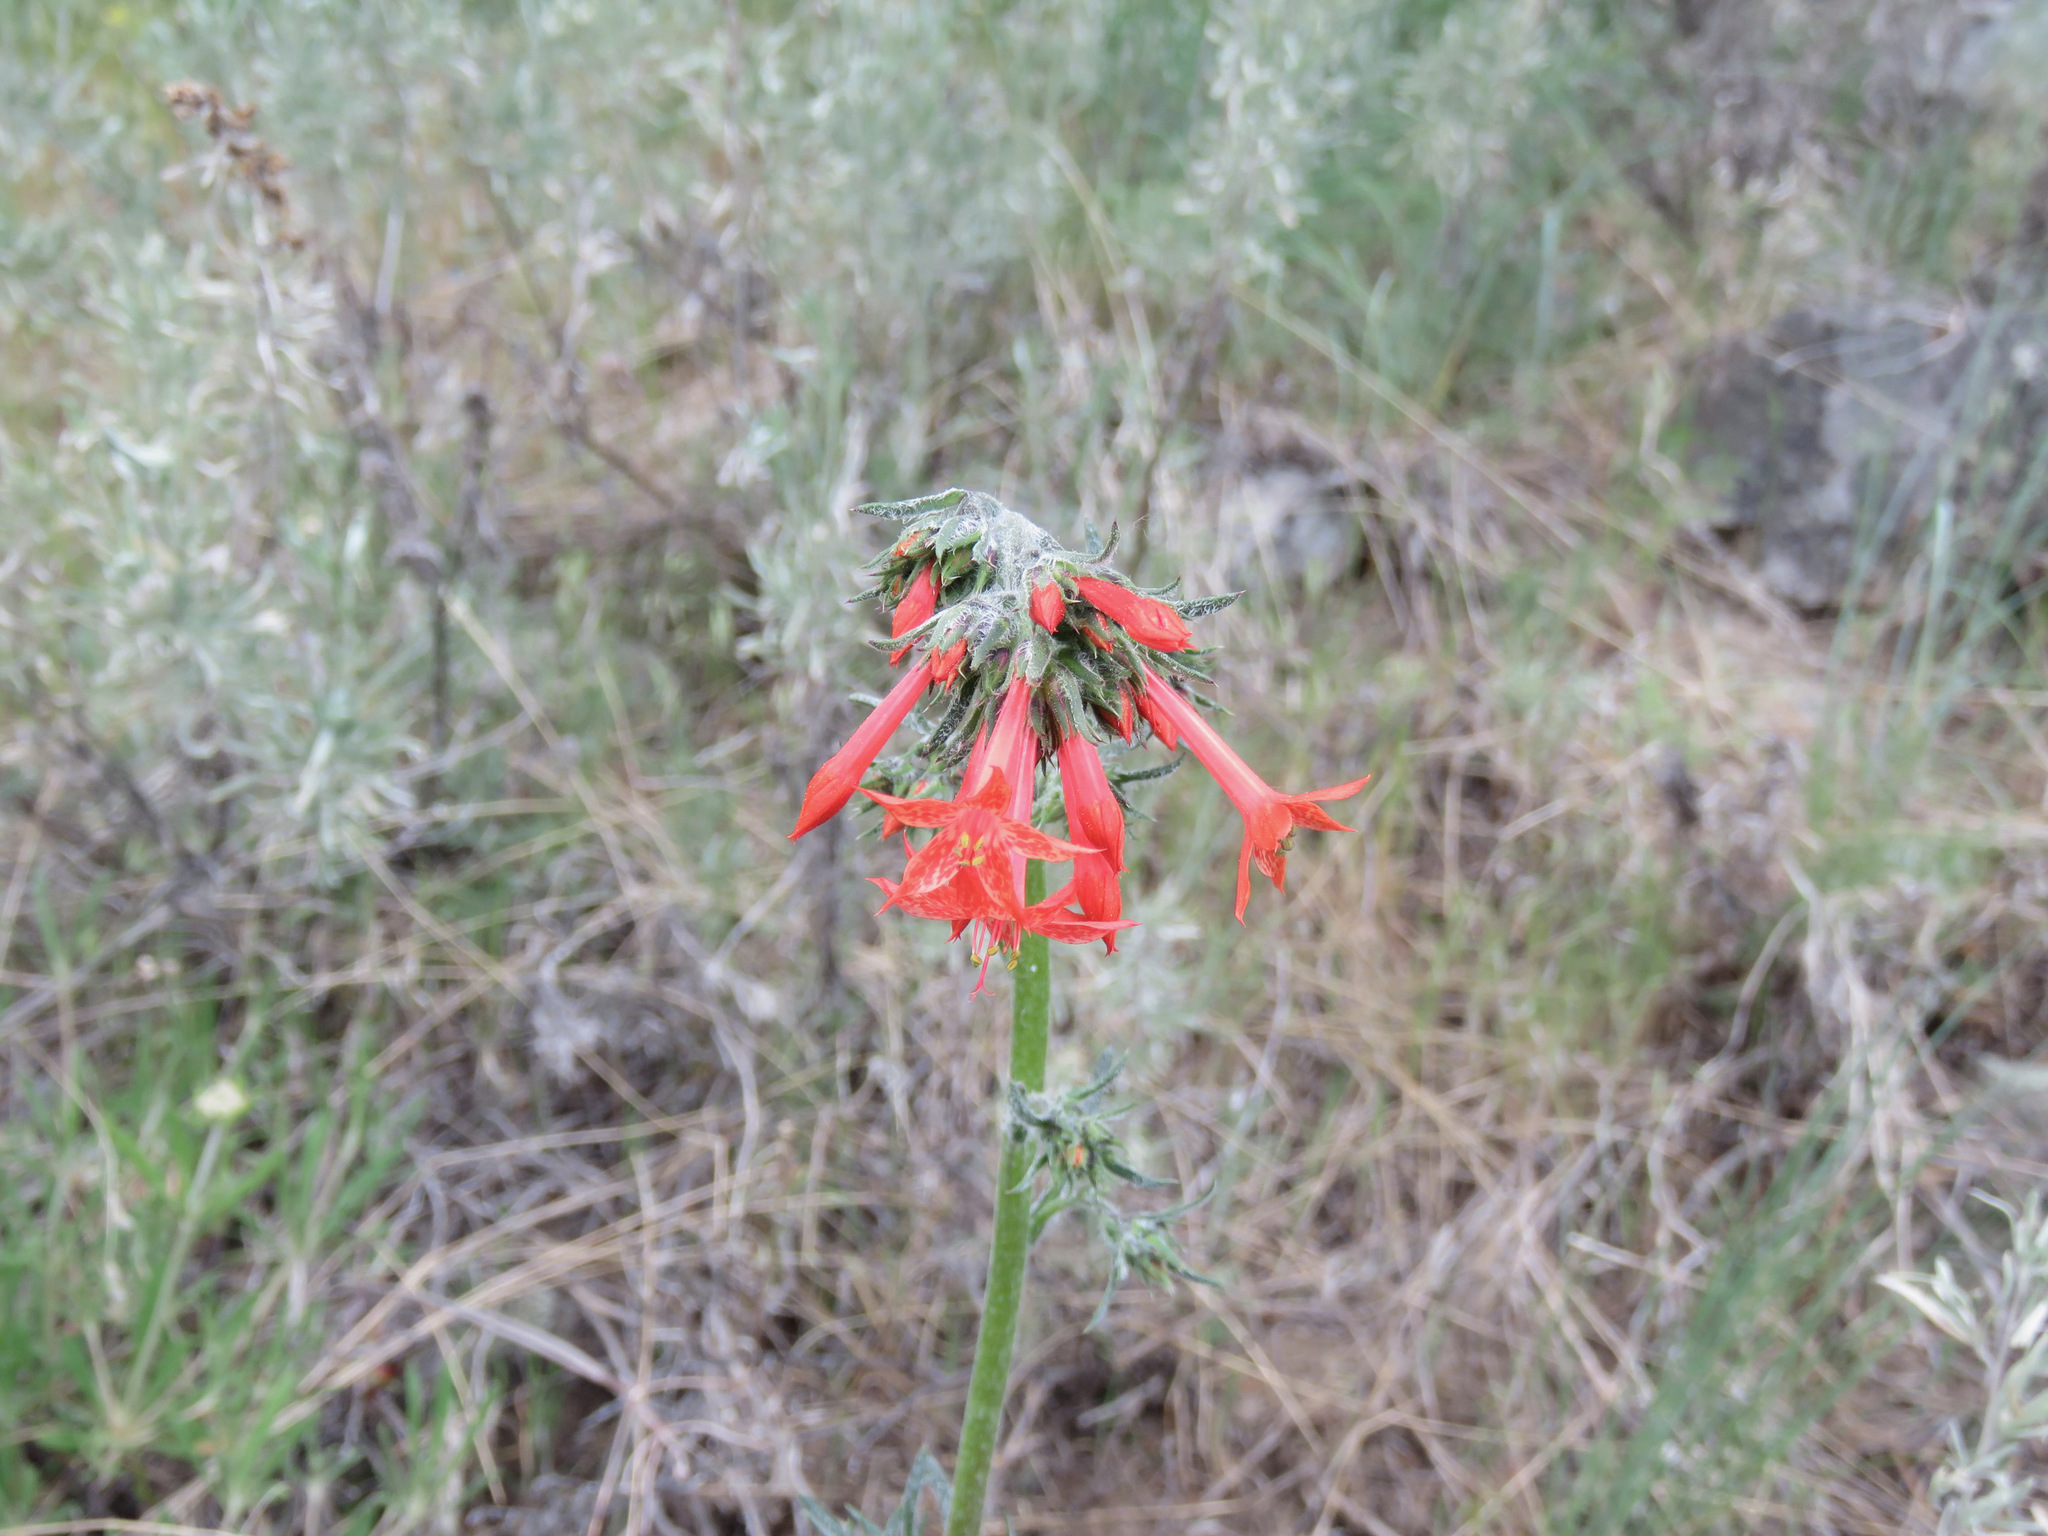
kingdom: Plantae
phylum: Tracheophyta
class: Magnoliopsida
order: Ericales
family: Polemoniaceae
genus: Ipomopsis
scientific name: Ipomopsis aggregata
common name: Scarlet gilia
